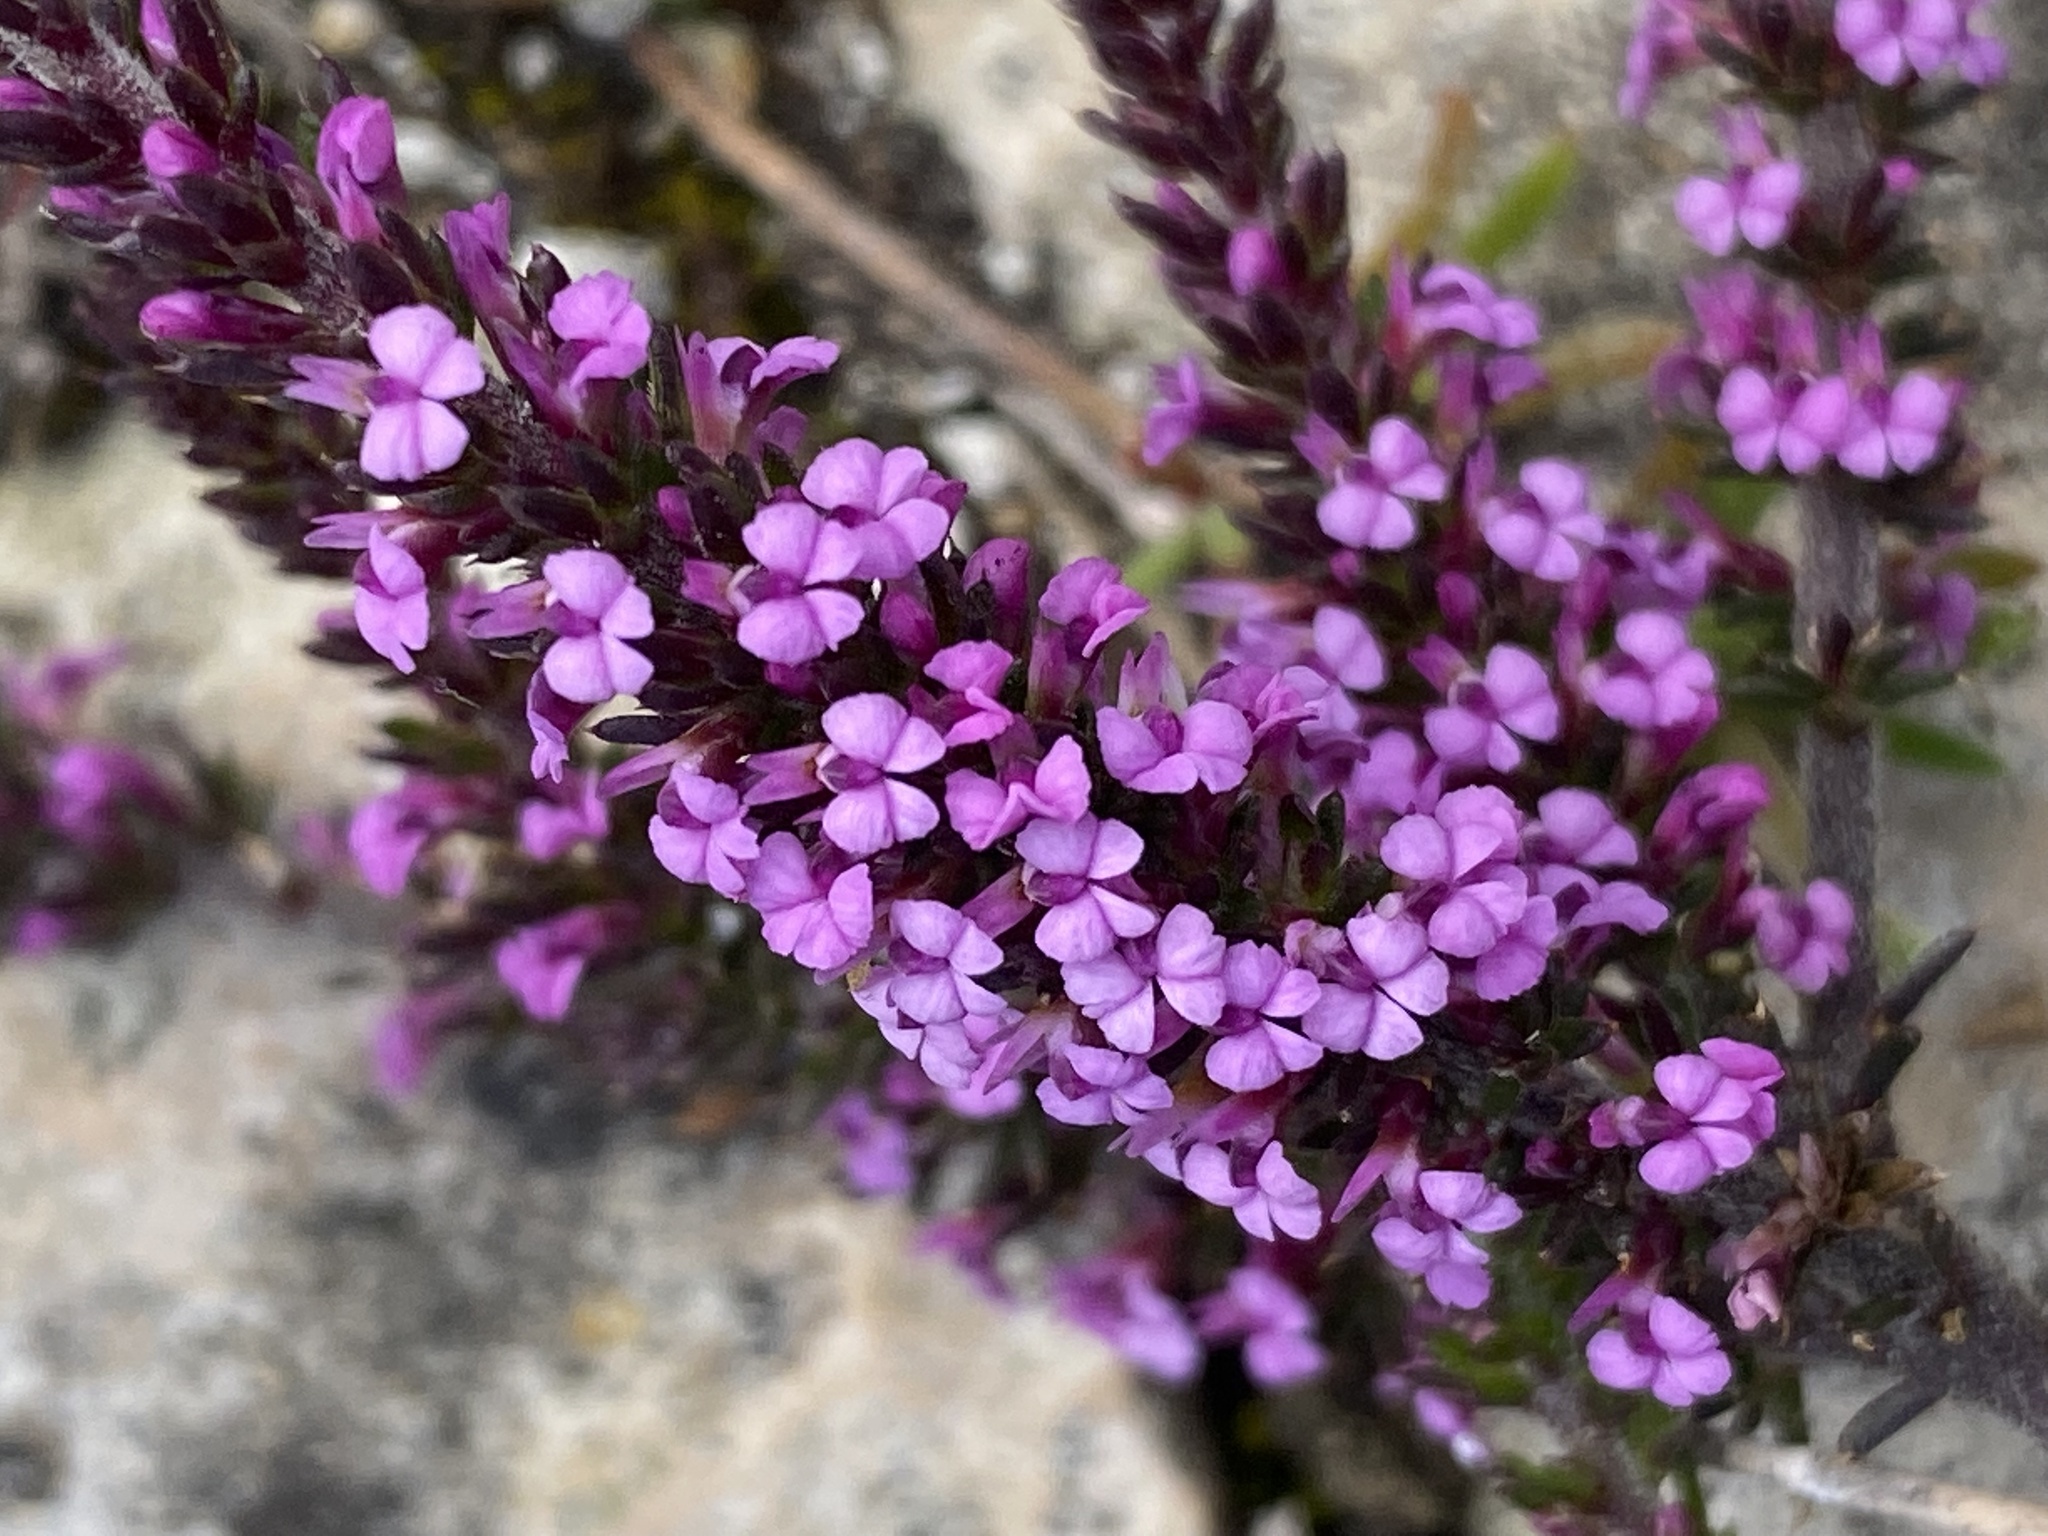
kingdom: Plantae
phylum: Tracheophyta
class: Magnoliopsida
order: Fabales
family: Polygalaceae
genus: Muraltia
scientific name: Muraltia depressa
